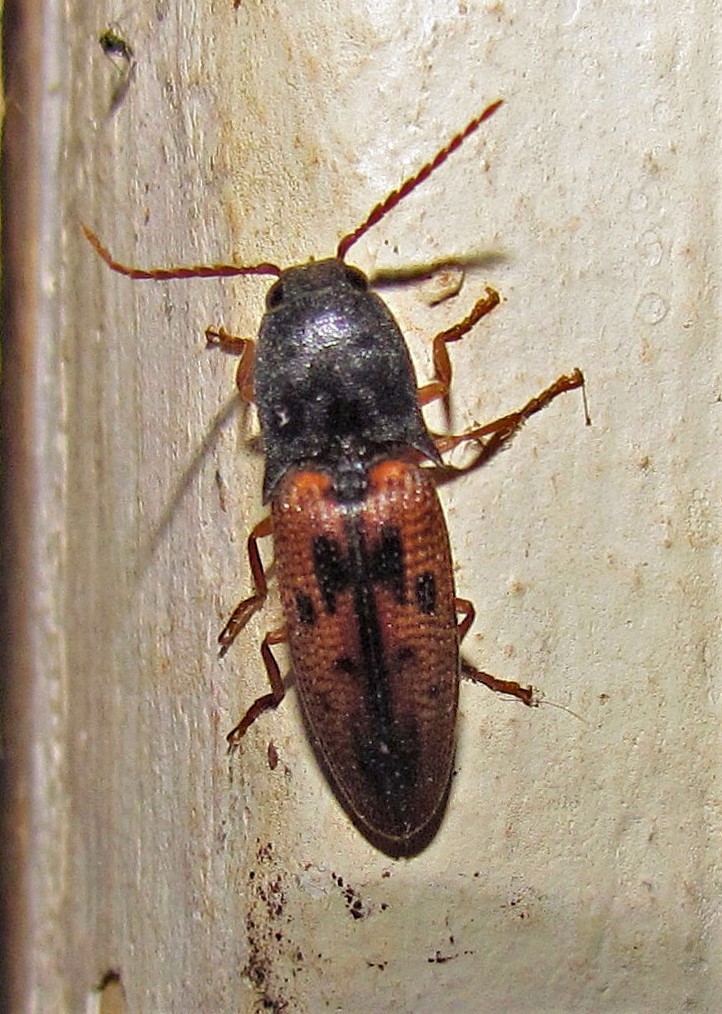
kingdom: Animalia
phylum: Arthropoda
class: Insecta
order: Coleoptera
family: Elateridae
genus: Monocrepidius
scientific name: Monocrepidius
